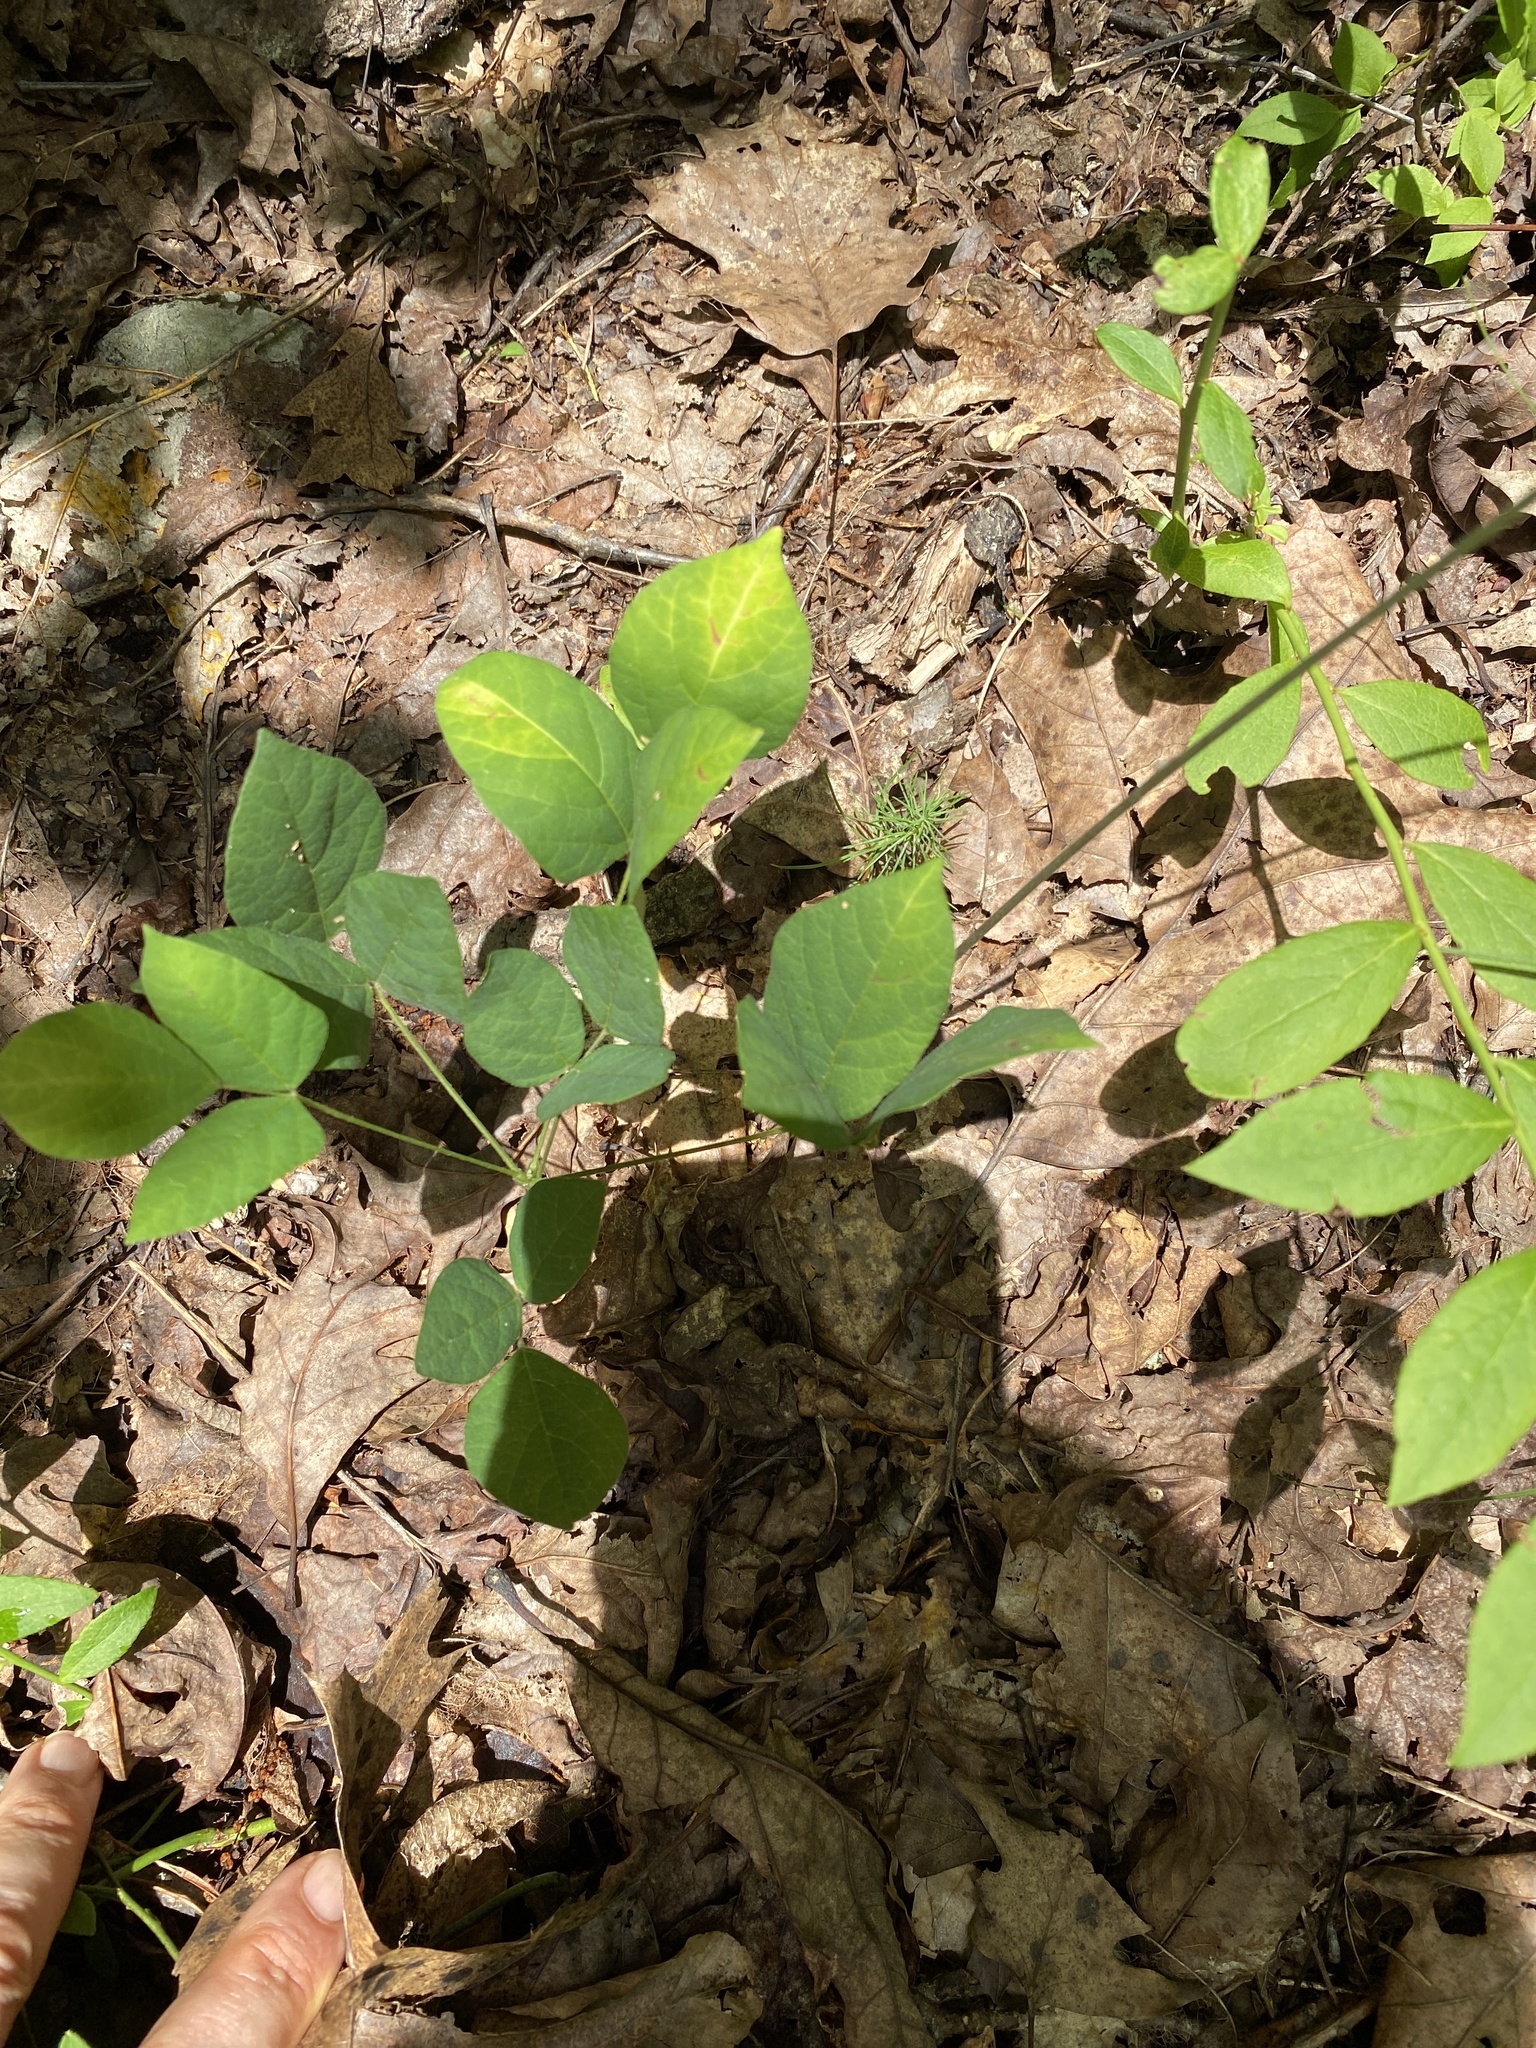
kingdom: Plantae
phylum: Tracheophyta
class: Magnoliopsida
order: Fabales
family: Fabaceae
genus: Hylodesmum
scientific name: Hylodesmum nudiflorum
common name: Bare-stemmed tick-trefoil
